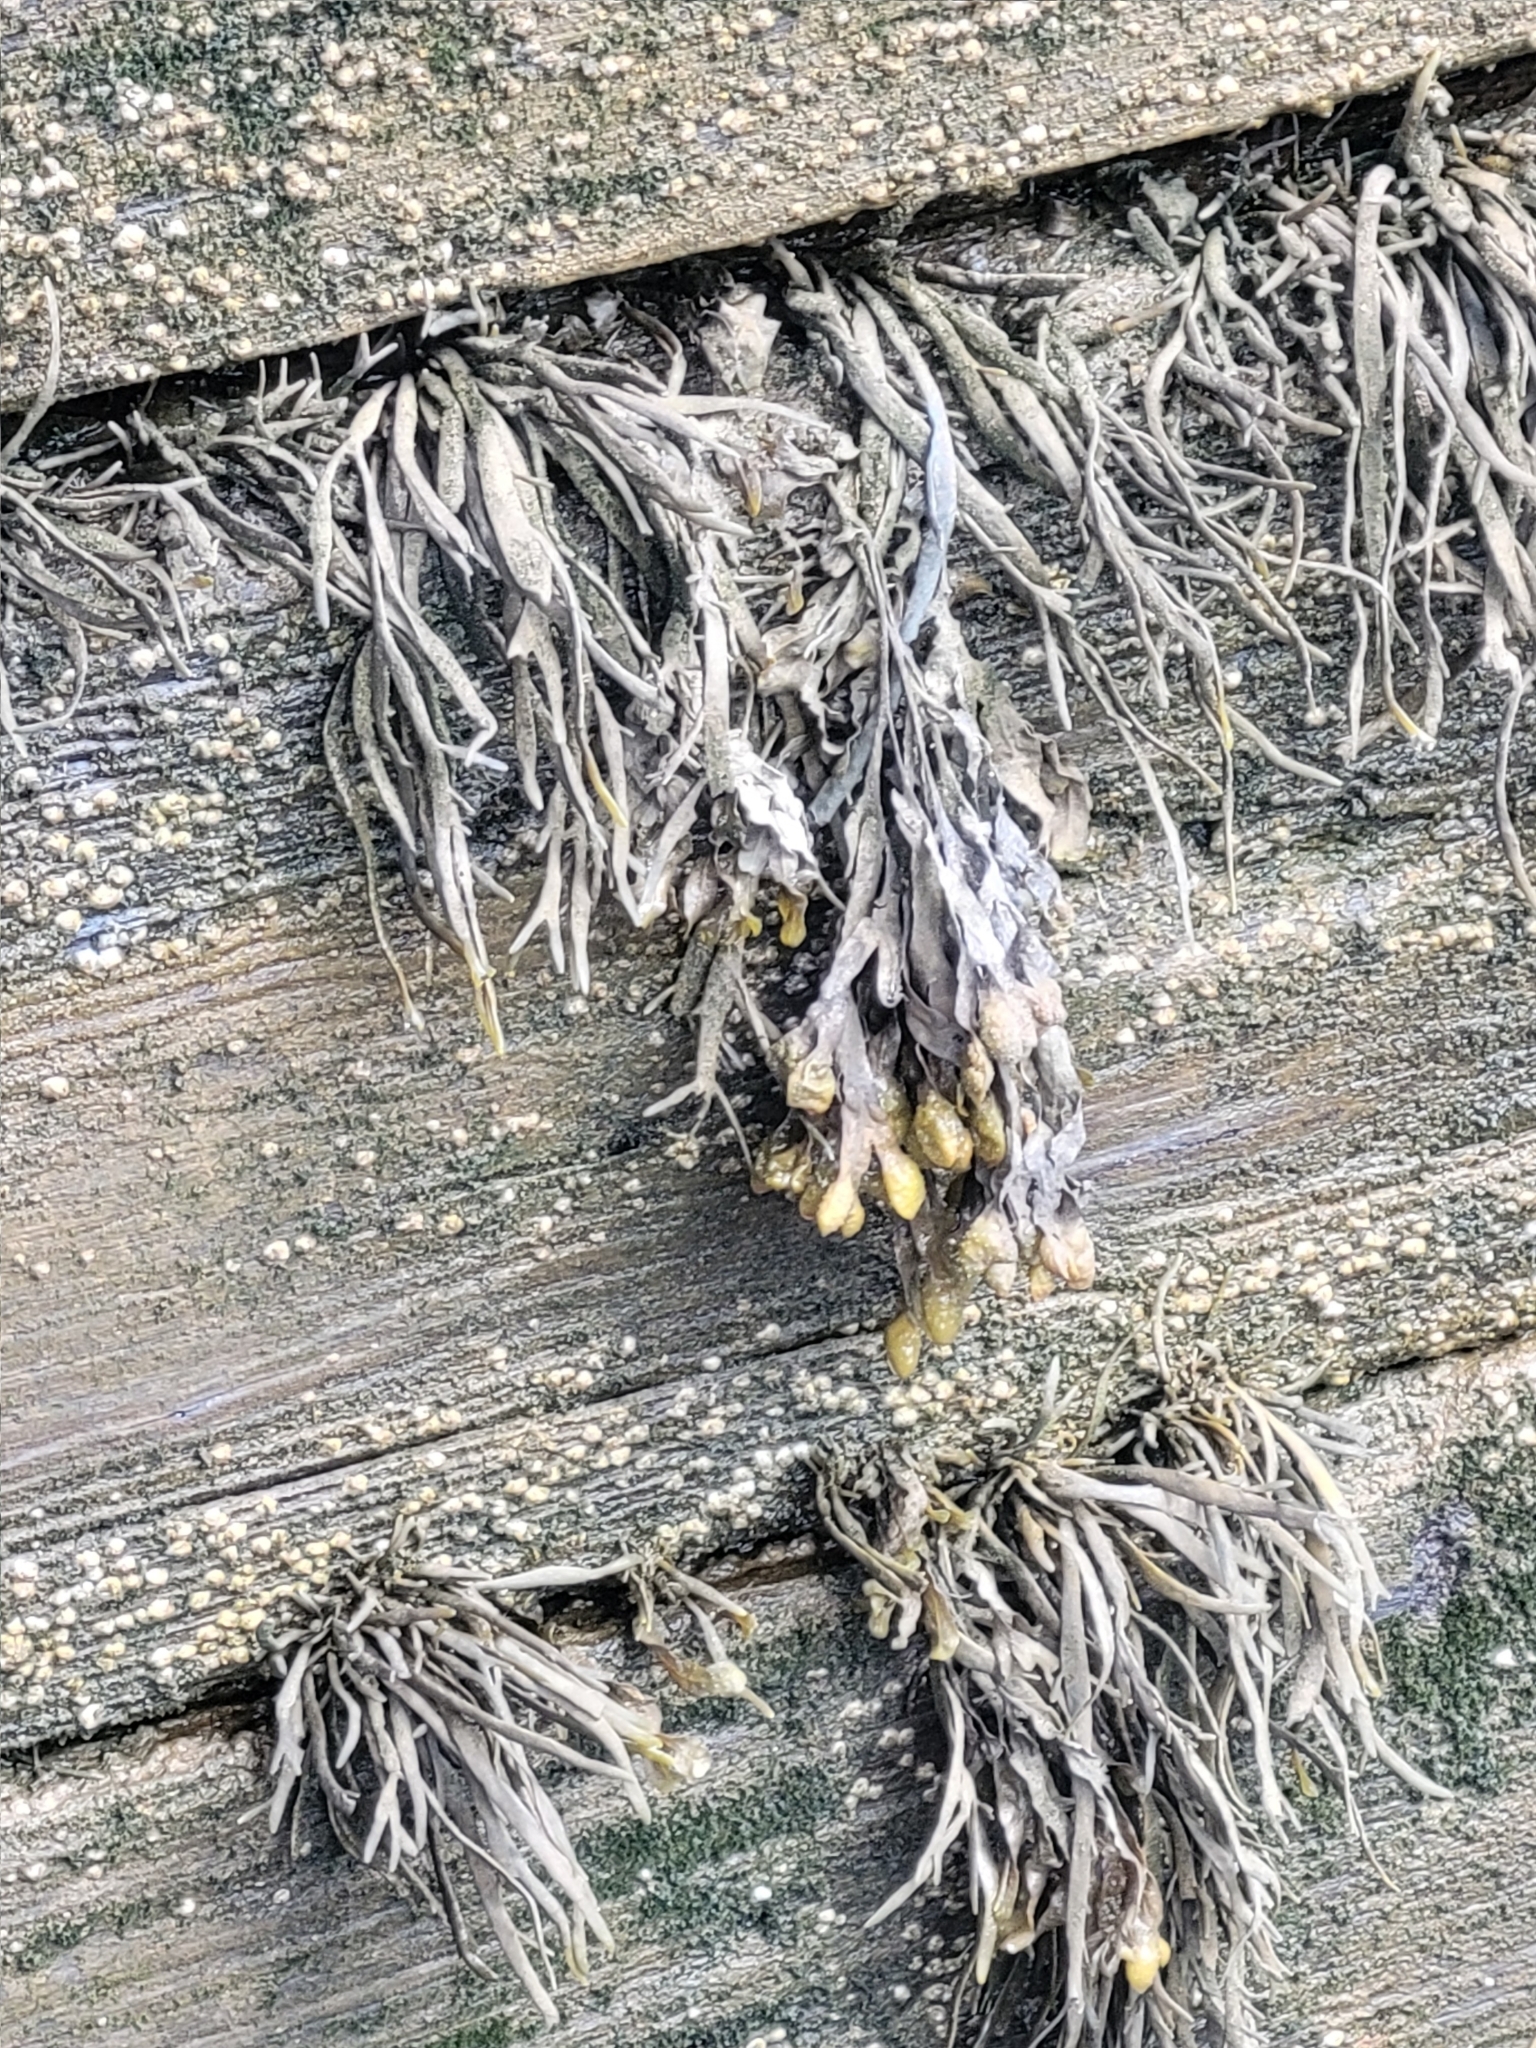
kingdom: Chromista
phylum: Ochrophyta
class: Phaeophyceae
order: Fucales
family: Fucaceae
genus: Ascophyllum
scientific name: Ascophyllum nodosum
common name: Knotted wrack
